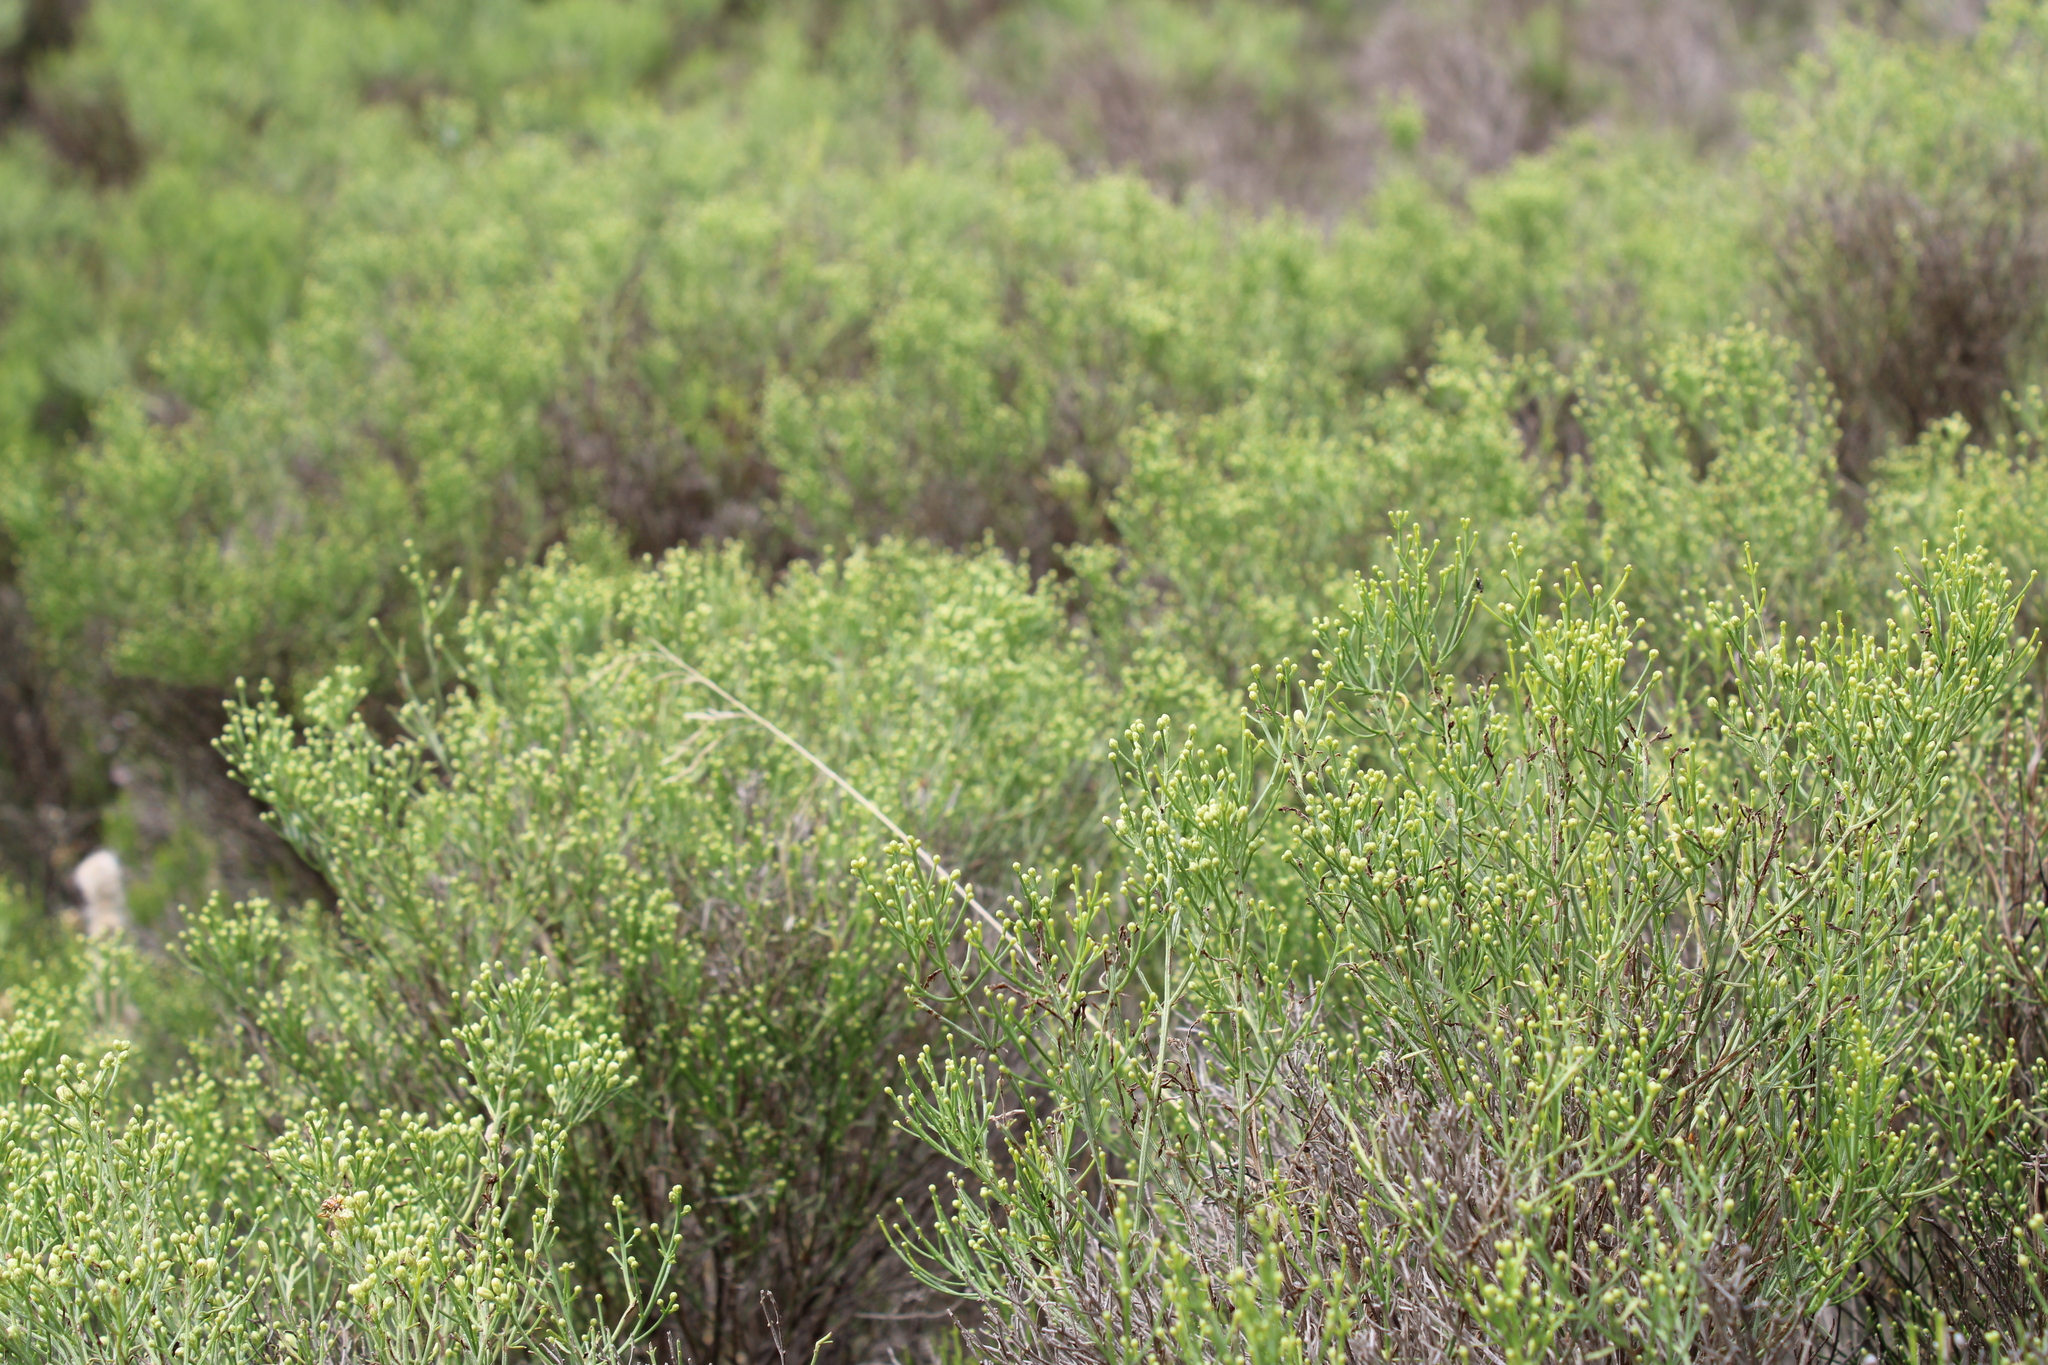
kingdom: Plantae
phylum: Tracheophyta
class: Magnoliopsida
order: Asterales
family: Asteraceae
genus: Baccharis
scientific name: Baccharis notosergila
